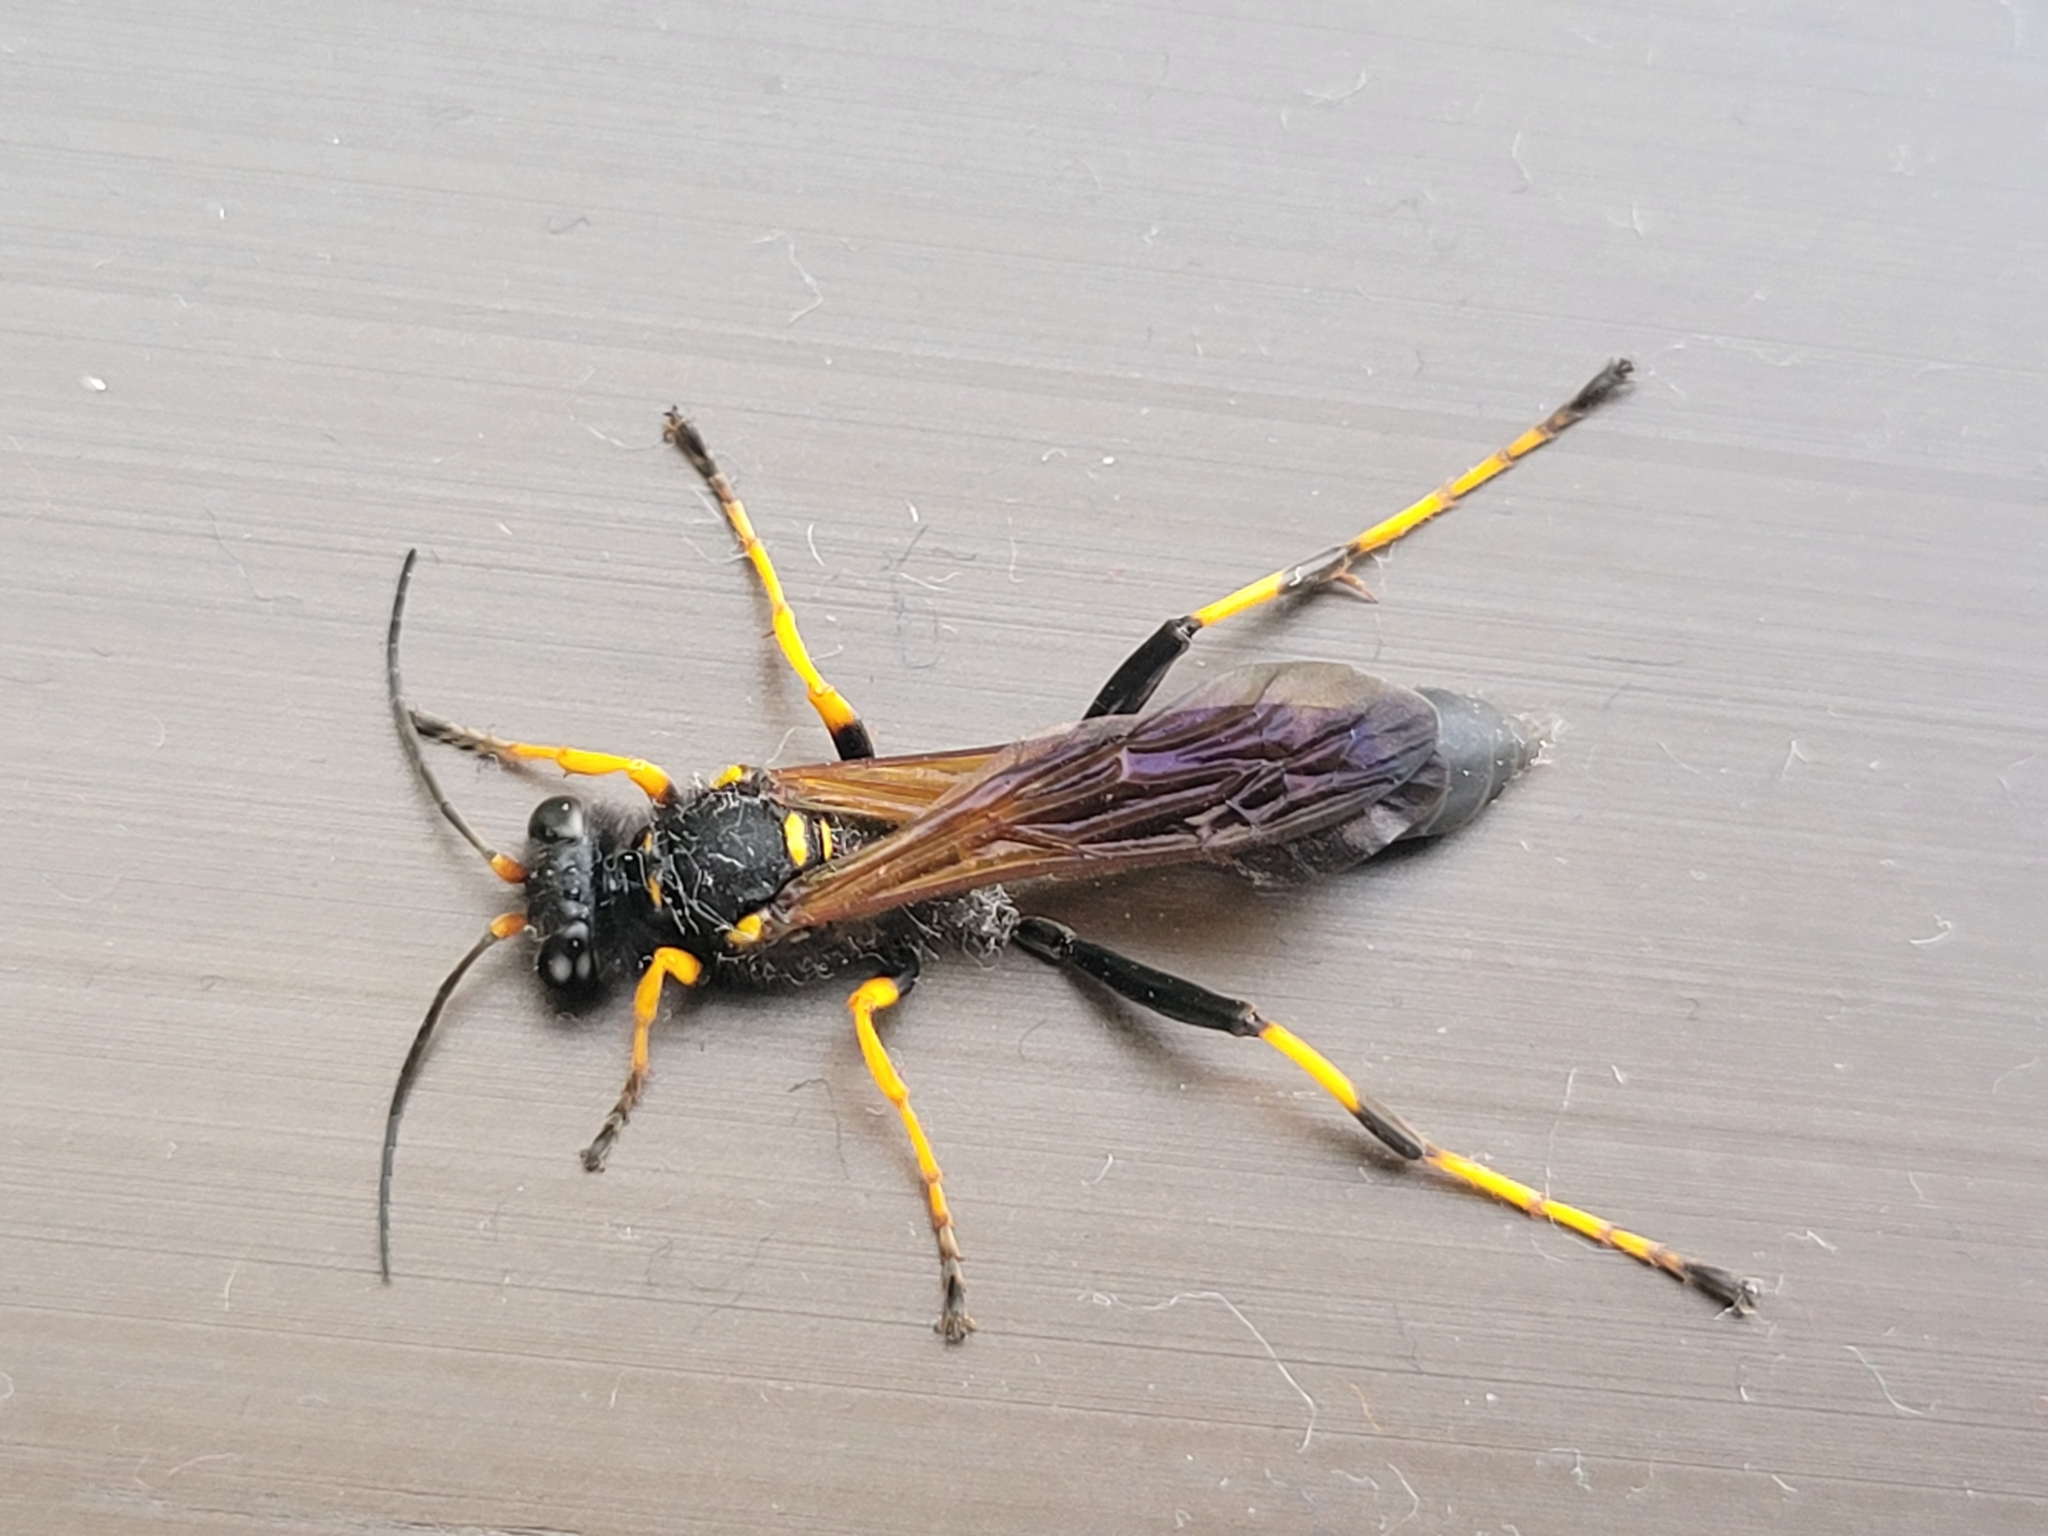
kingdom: Animalia
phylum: Arthropoda
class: Insecta
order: Hymenoptera
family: Sphecidae
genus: Sceliphron
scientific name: Sceliphron caementarium
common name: Mud dauber
